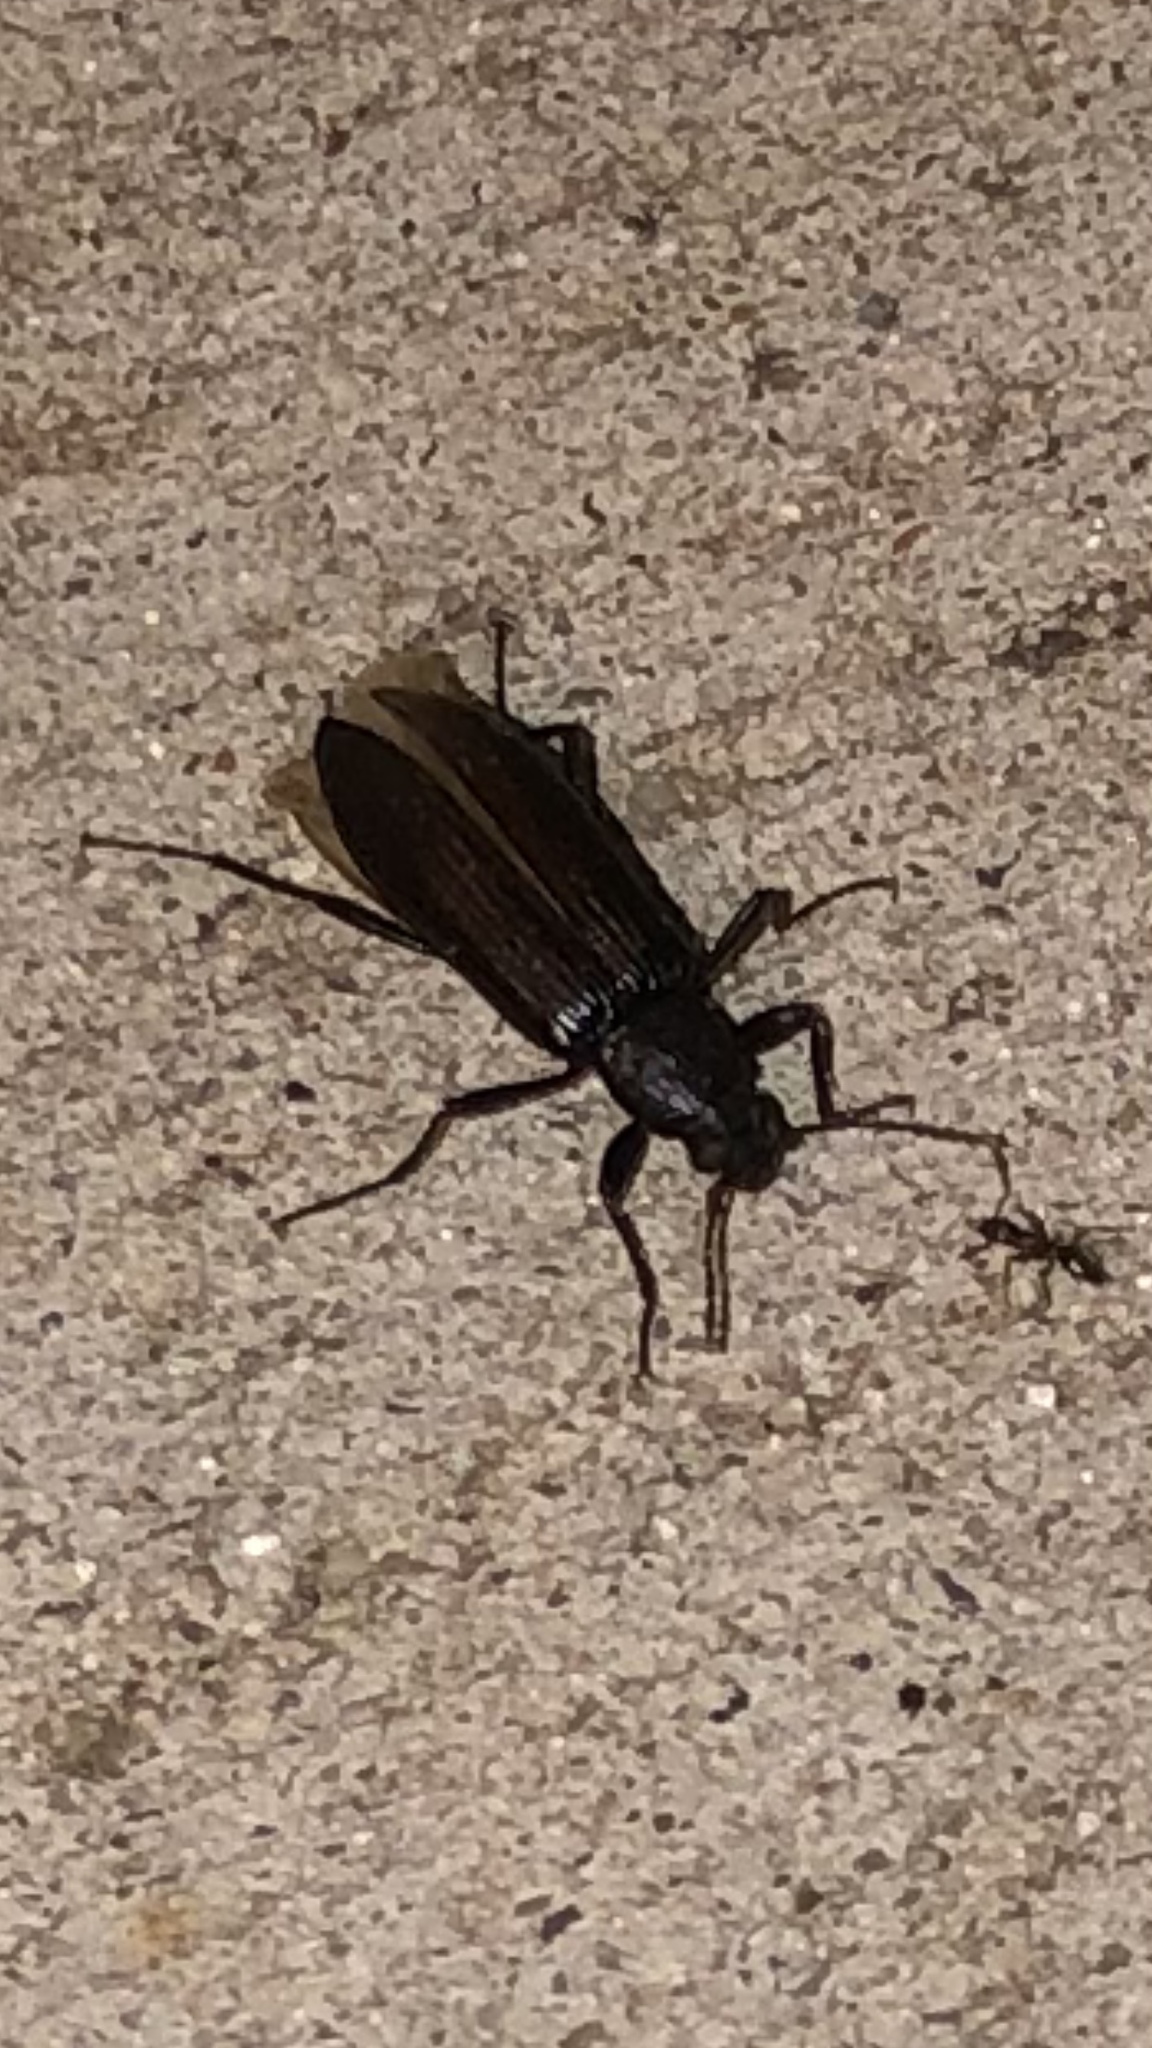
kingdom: Animalia
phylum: Arthropoda
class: Insecta
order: Coleoptera
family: Tenebrionidae
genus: Strongylium
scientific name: Strongylium tenuicolle
